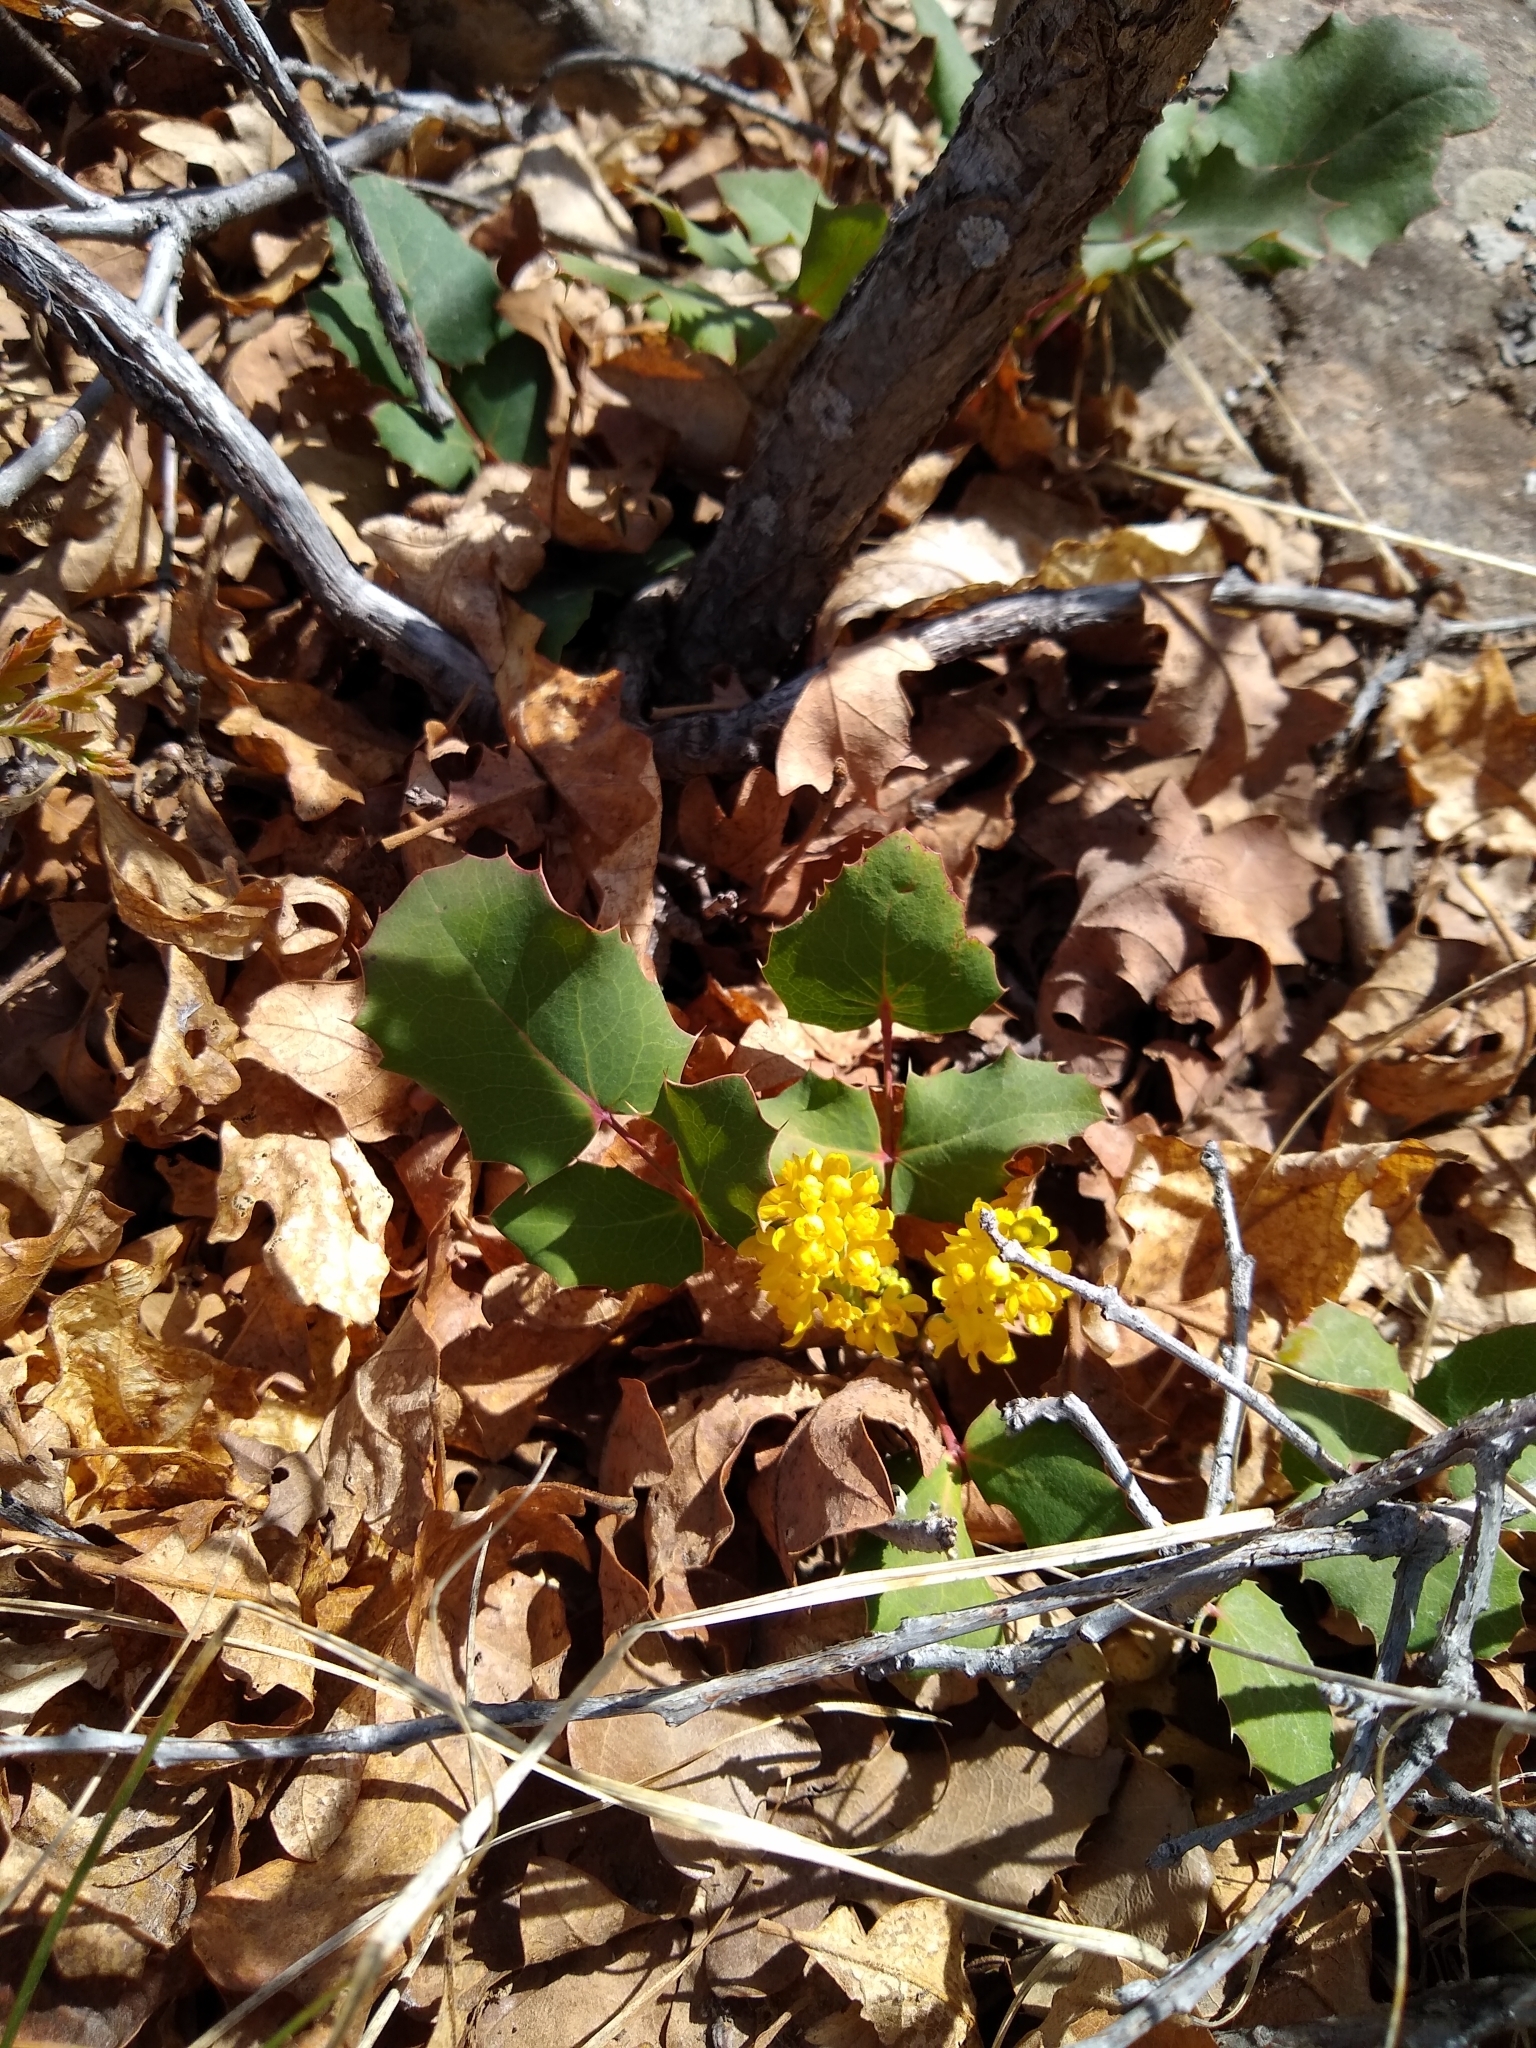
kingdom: Plantae
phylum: Tracheophyta
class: Magnoliopsida
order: Ranunculales
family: Berberidaceae
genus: Mahonia
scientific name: Mahonia repens
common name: Creeping oregon-grape
